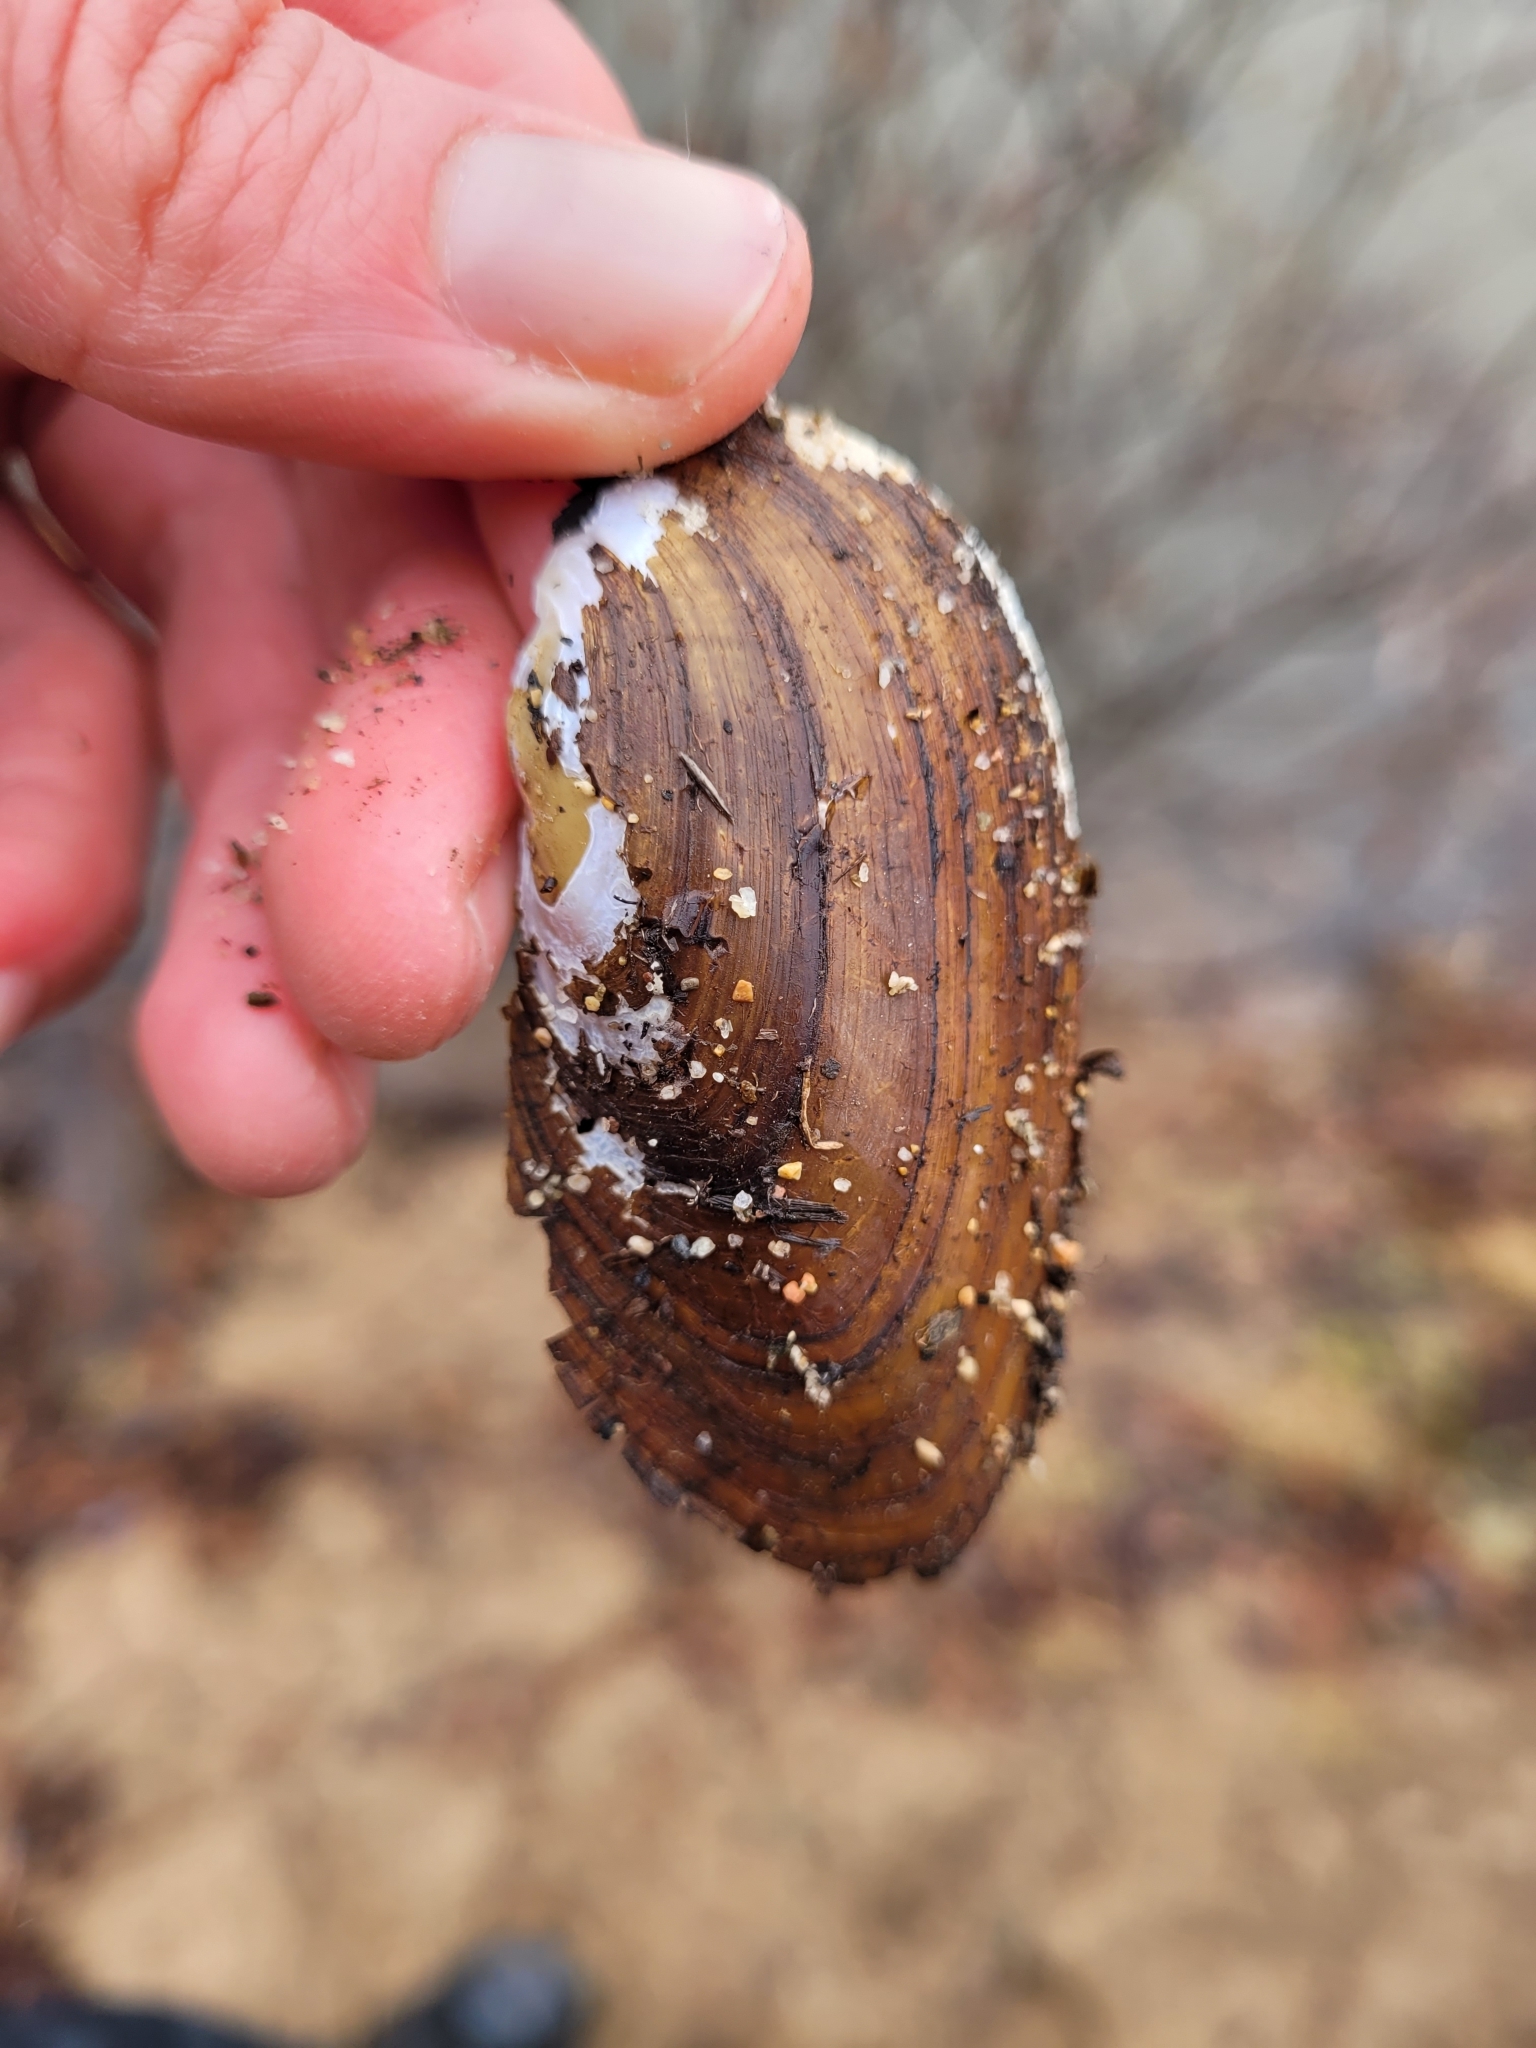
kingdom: Animalia
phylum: Mollusca
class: Bivalvia
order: Unionida
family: Unionidae
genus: Elliptio
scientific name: Elliptio complanata
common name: Eastern elliptio
